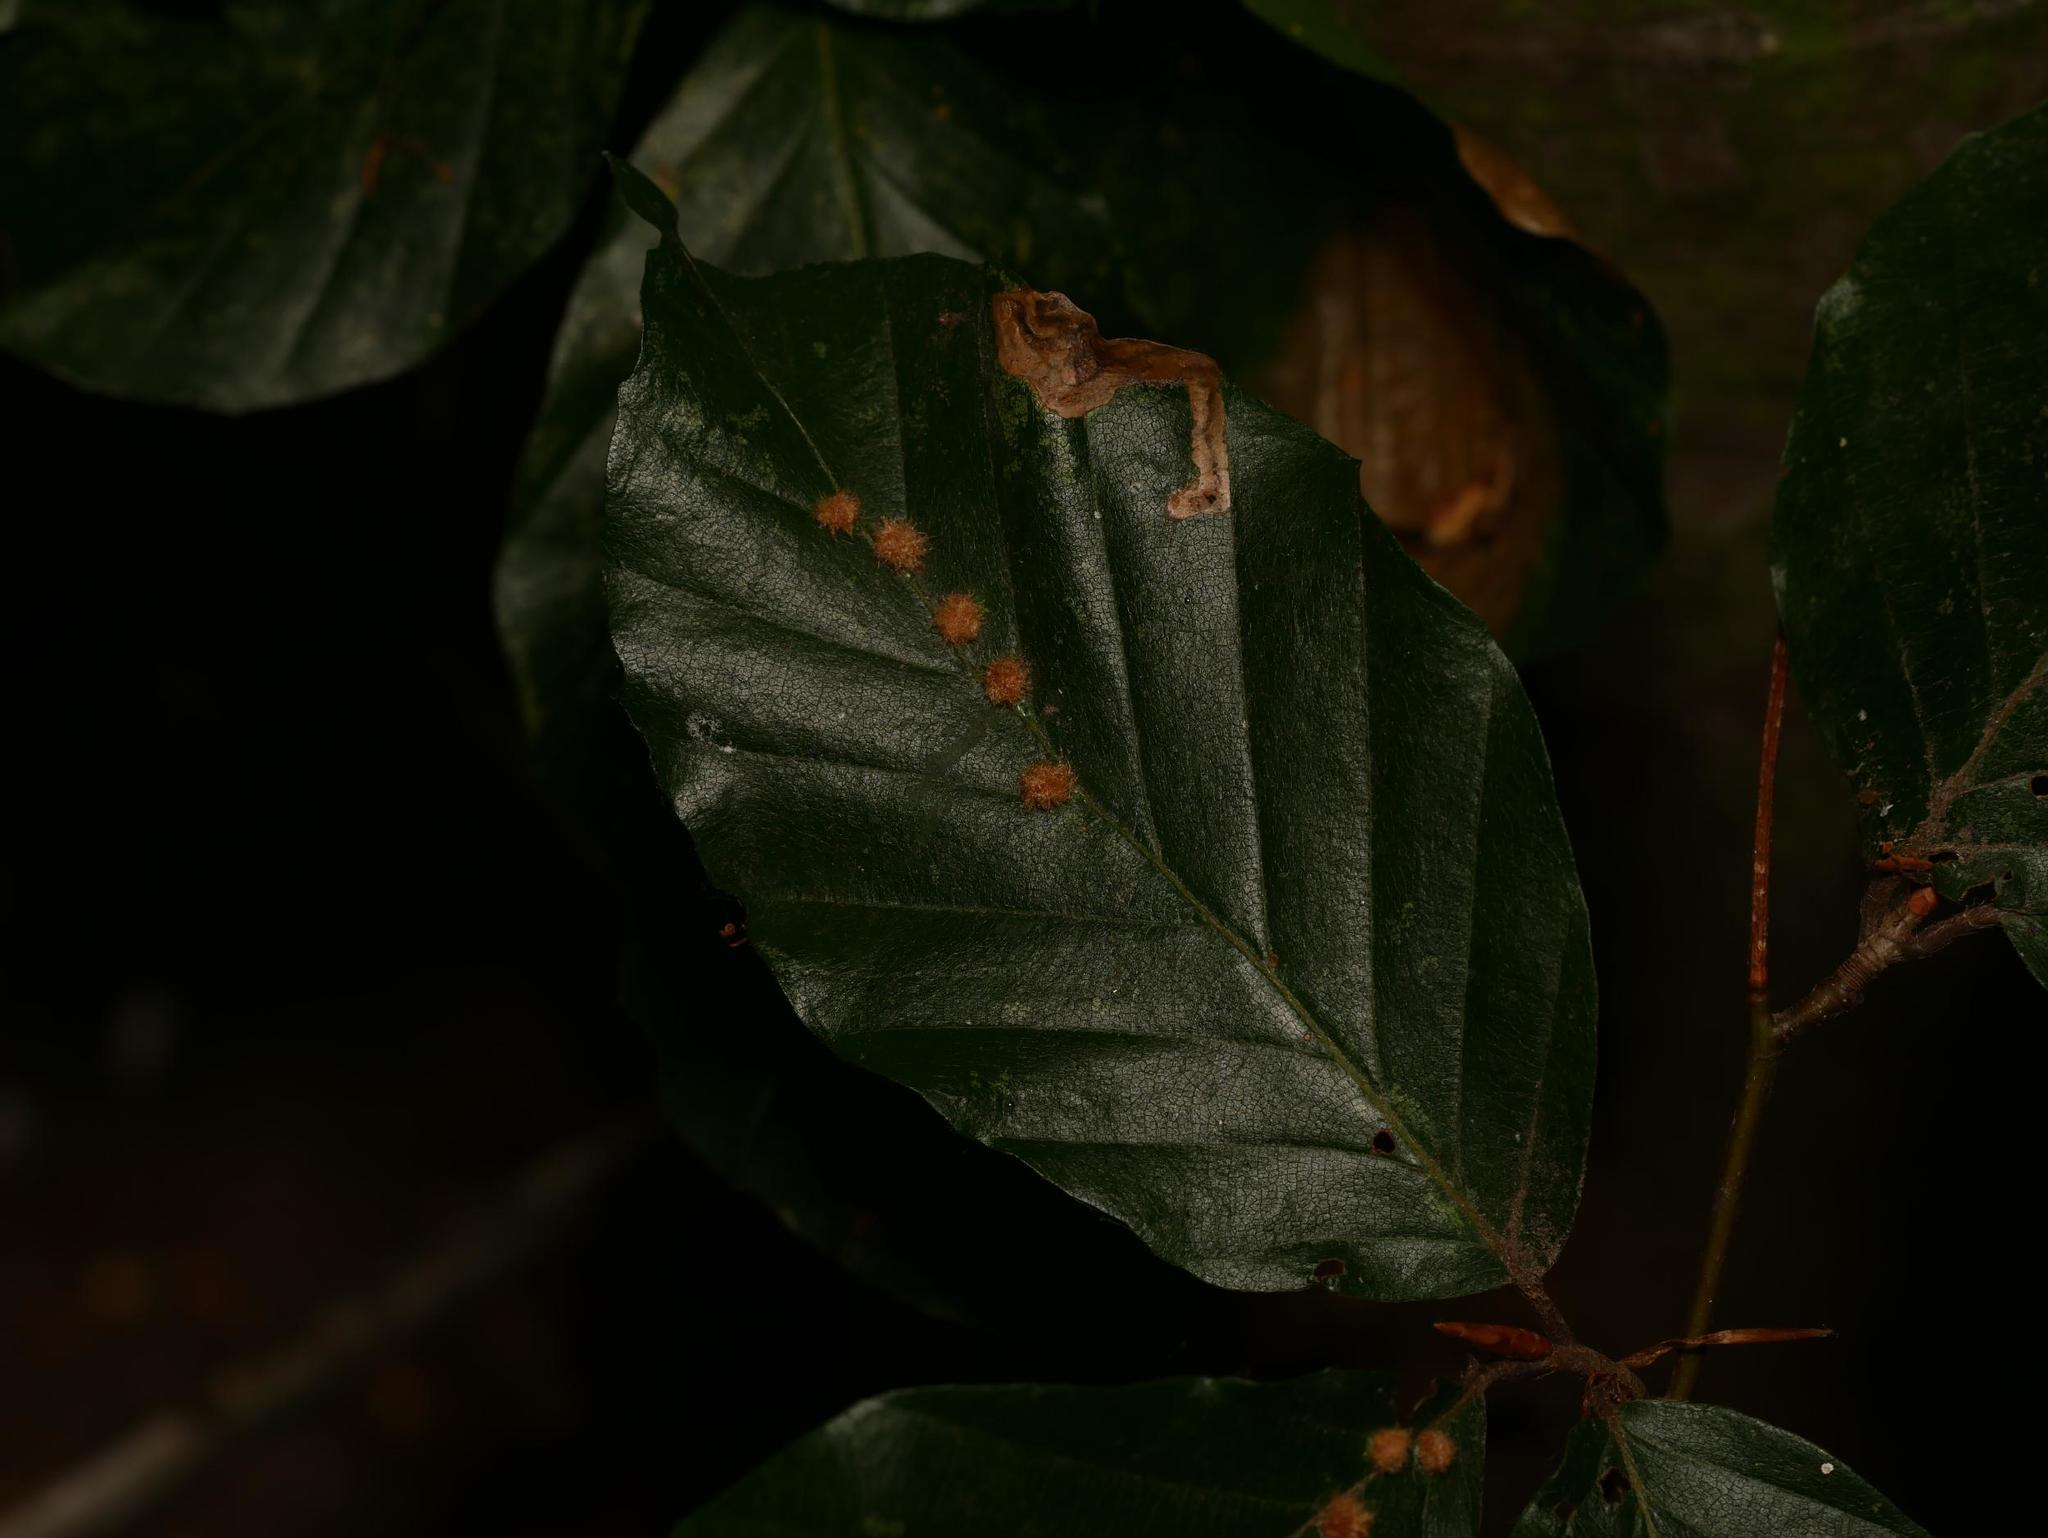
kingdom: Plantae
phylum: Tracheophyta
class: Magnoliopsida
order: Fagales
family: Fagaceae
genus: Fagus
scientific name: Fagus sylvatica
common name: Beech
